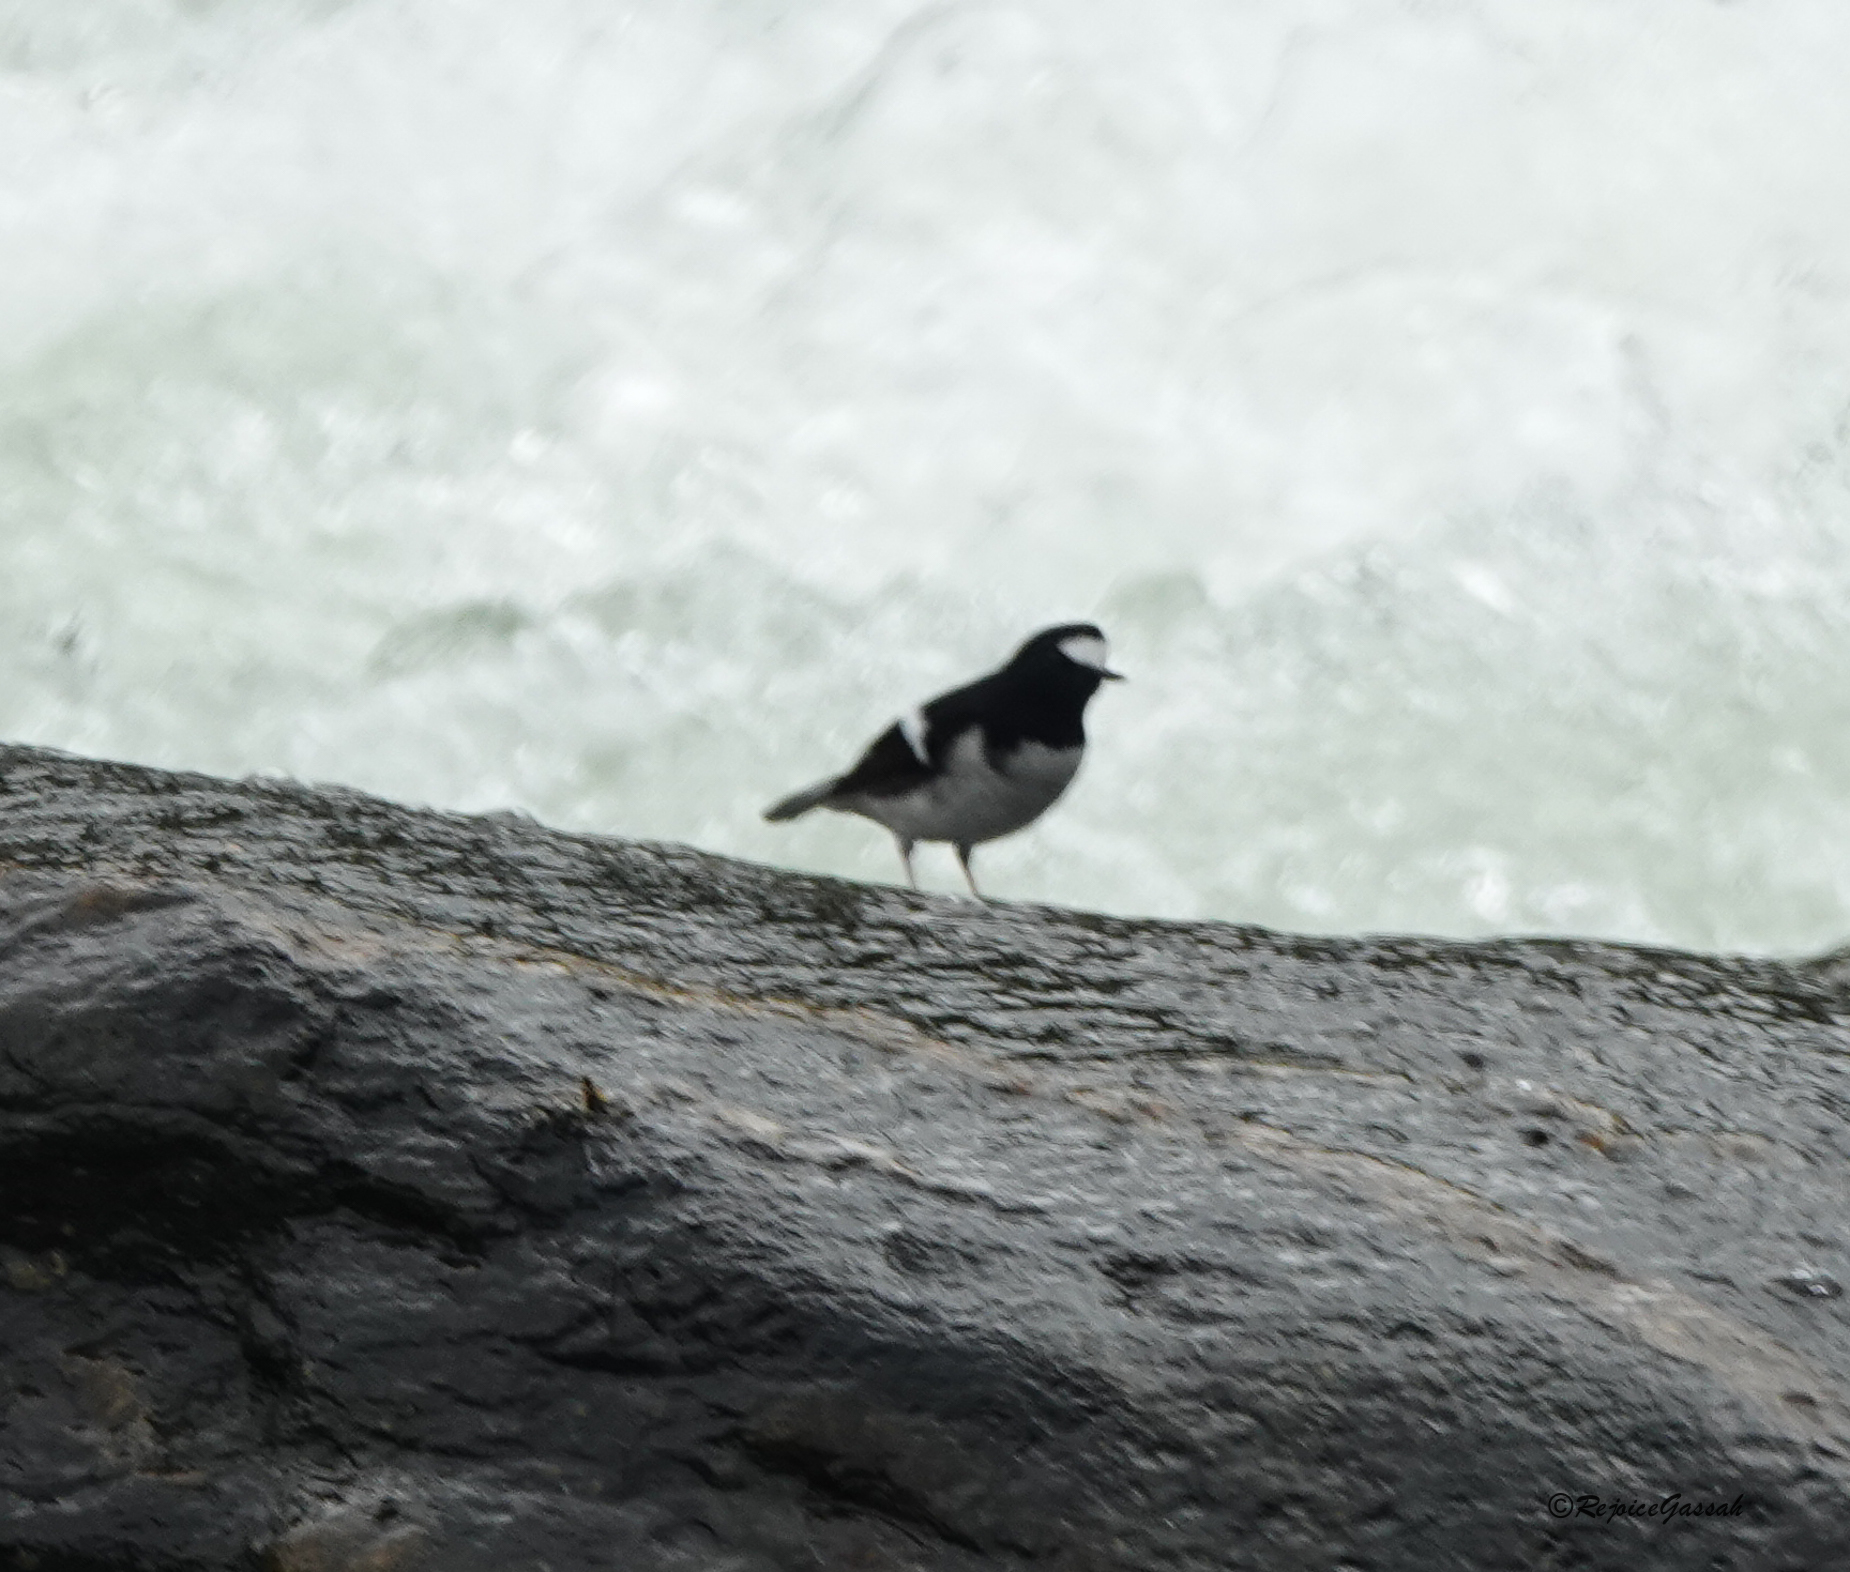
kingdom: Animalia
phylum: Chordata
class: Aves
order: Passeriformes
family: Muscicapidae
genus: Enicurus
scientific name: Enicurus scouleri
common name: Little forktail
